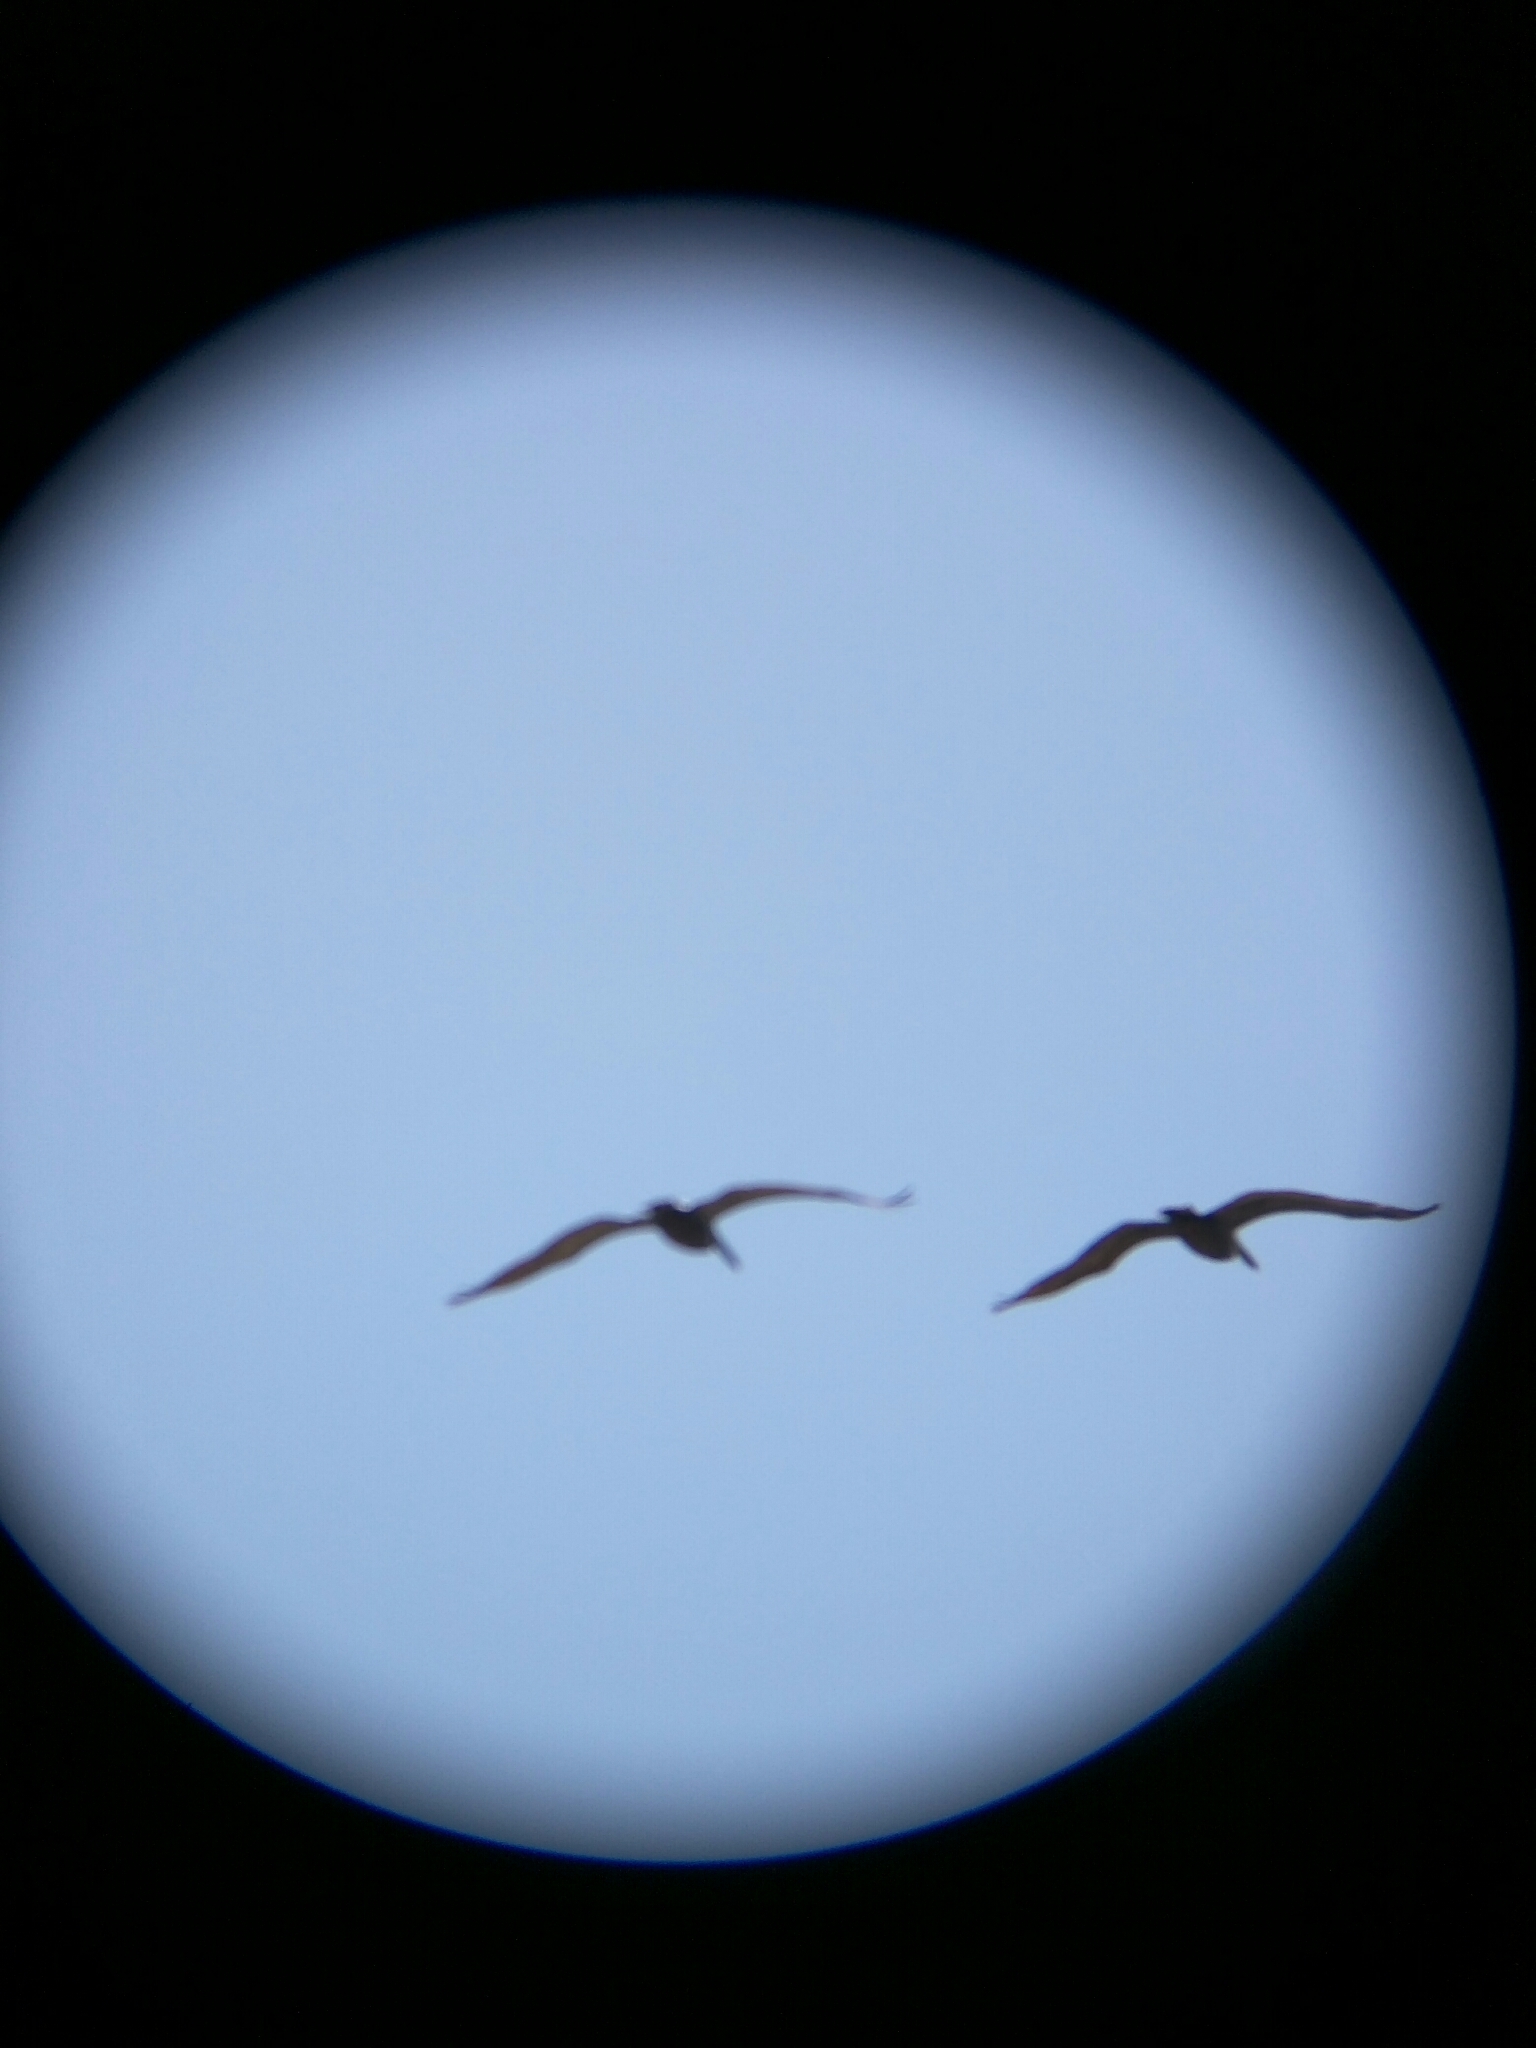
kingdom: Animalia
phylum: Chordata
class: Aves
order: Pelecaniformes
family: Pelecanidae
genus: Pelecanus
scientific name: Pelecanus occidentalis
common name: Brown pelican
